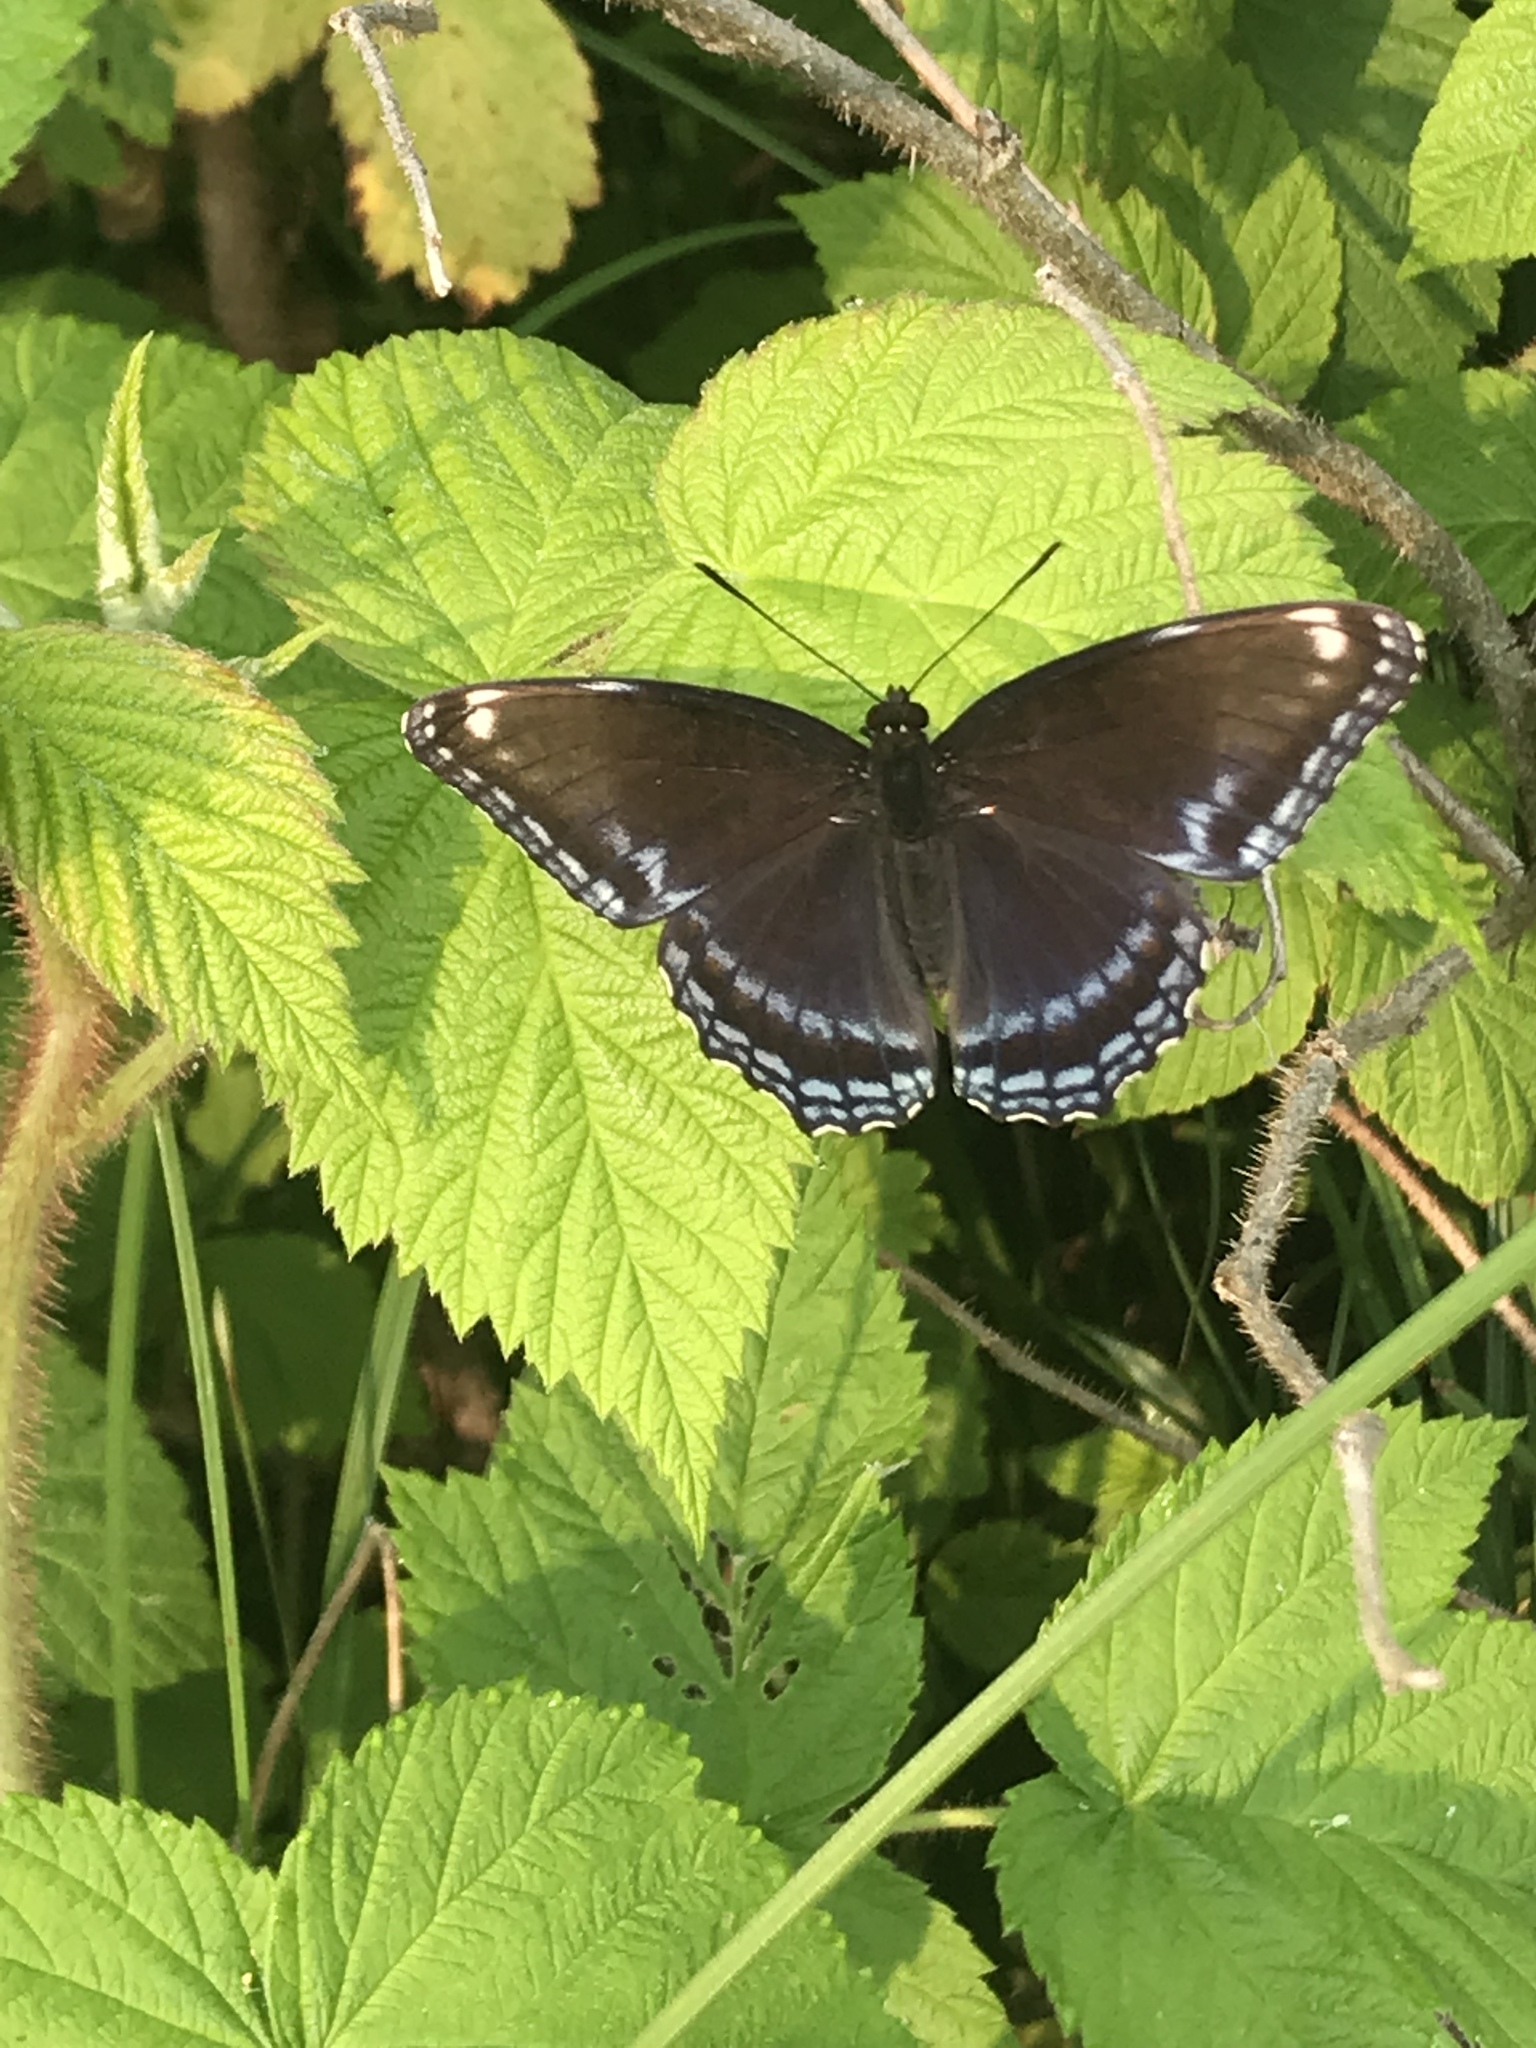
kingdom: Animalia
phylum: Arthropoda
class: Insecta
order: Lepidoptera
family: Nymphalidae
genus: Limenitis
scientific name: Limenitis arthemis
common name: Red-spotted admiral
